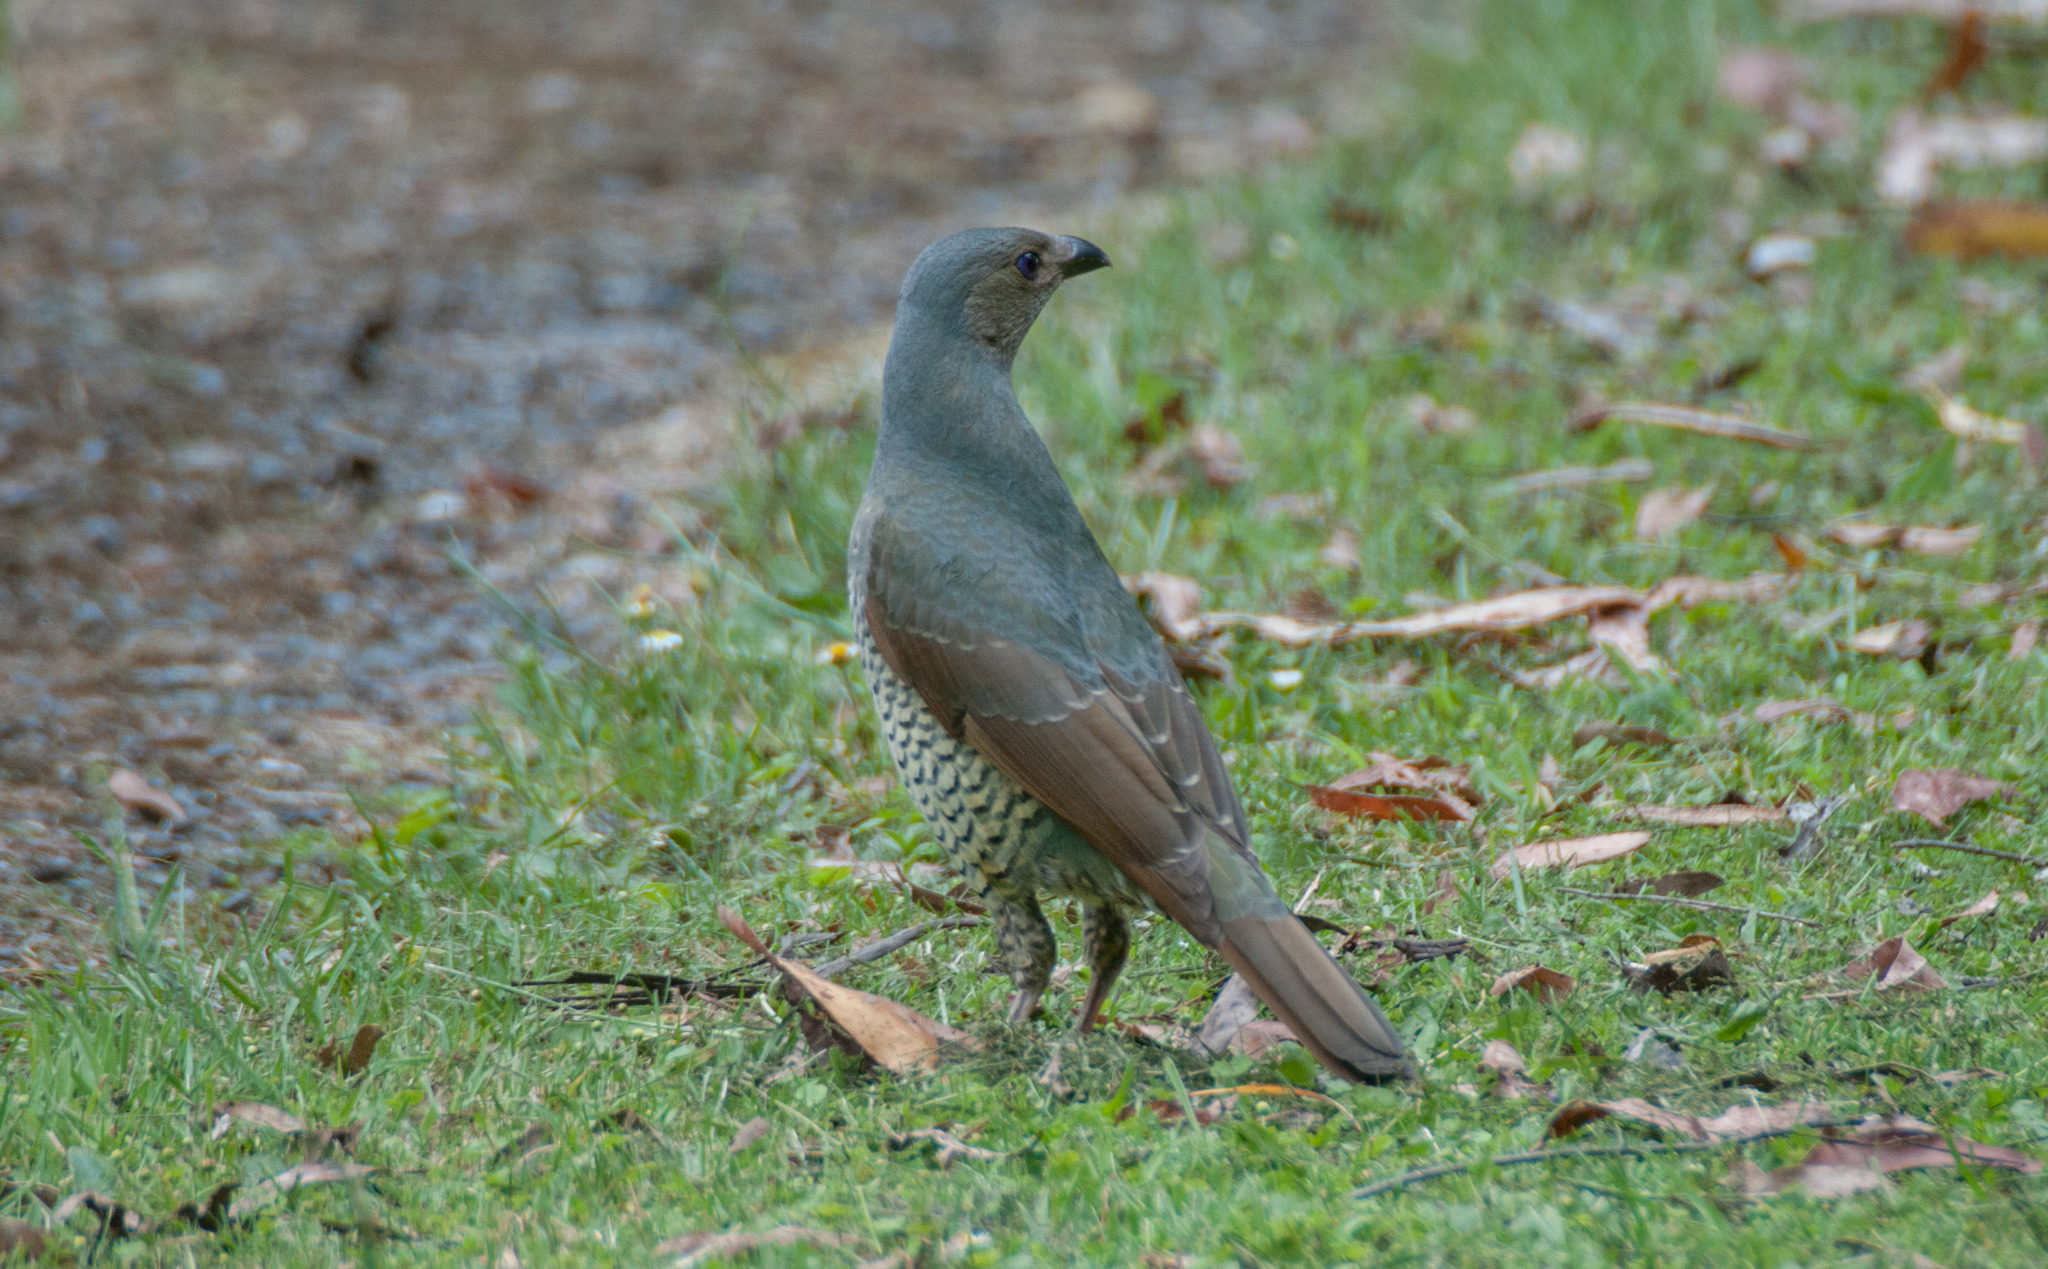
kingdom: Animalia
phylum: Chordata
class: Aves
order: Passeriformes
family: Ptilonorhynchidae
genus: Ptilonorhynchus
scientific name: Ptilonorhynchus violaceus
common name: Satin bowerbird
